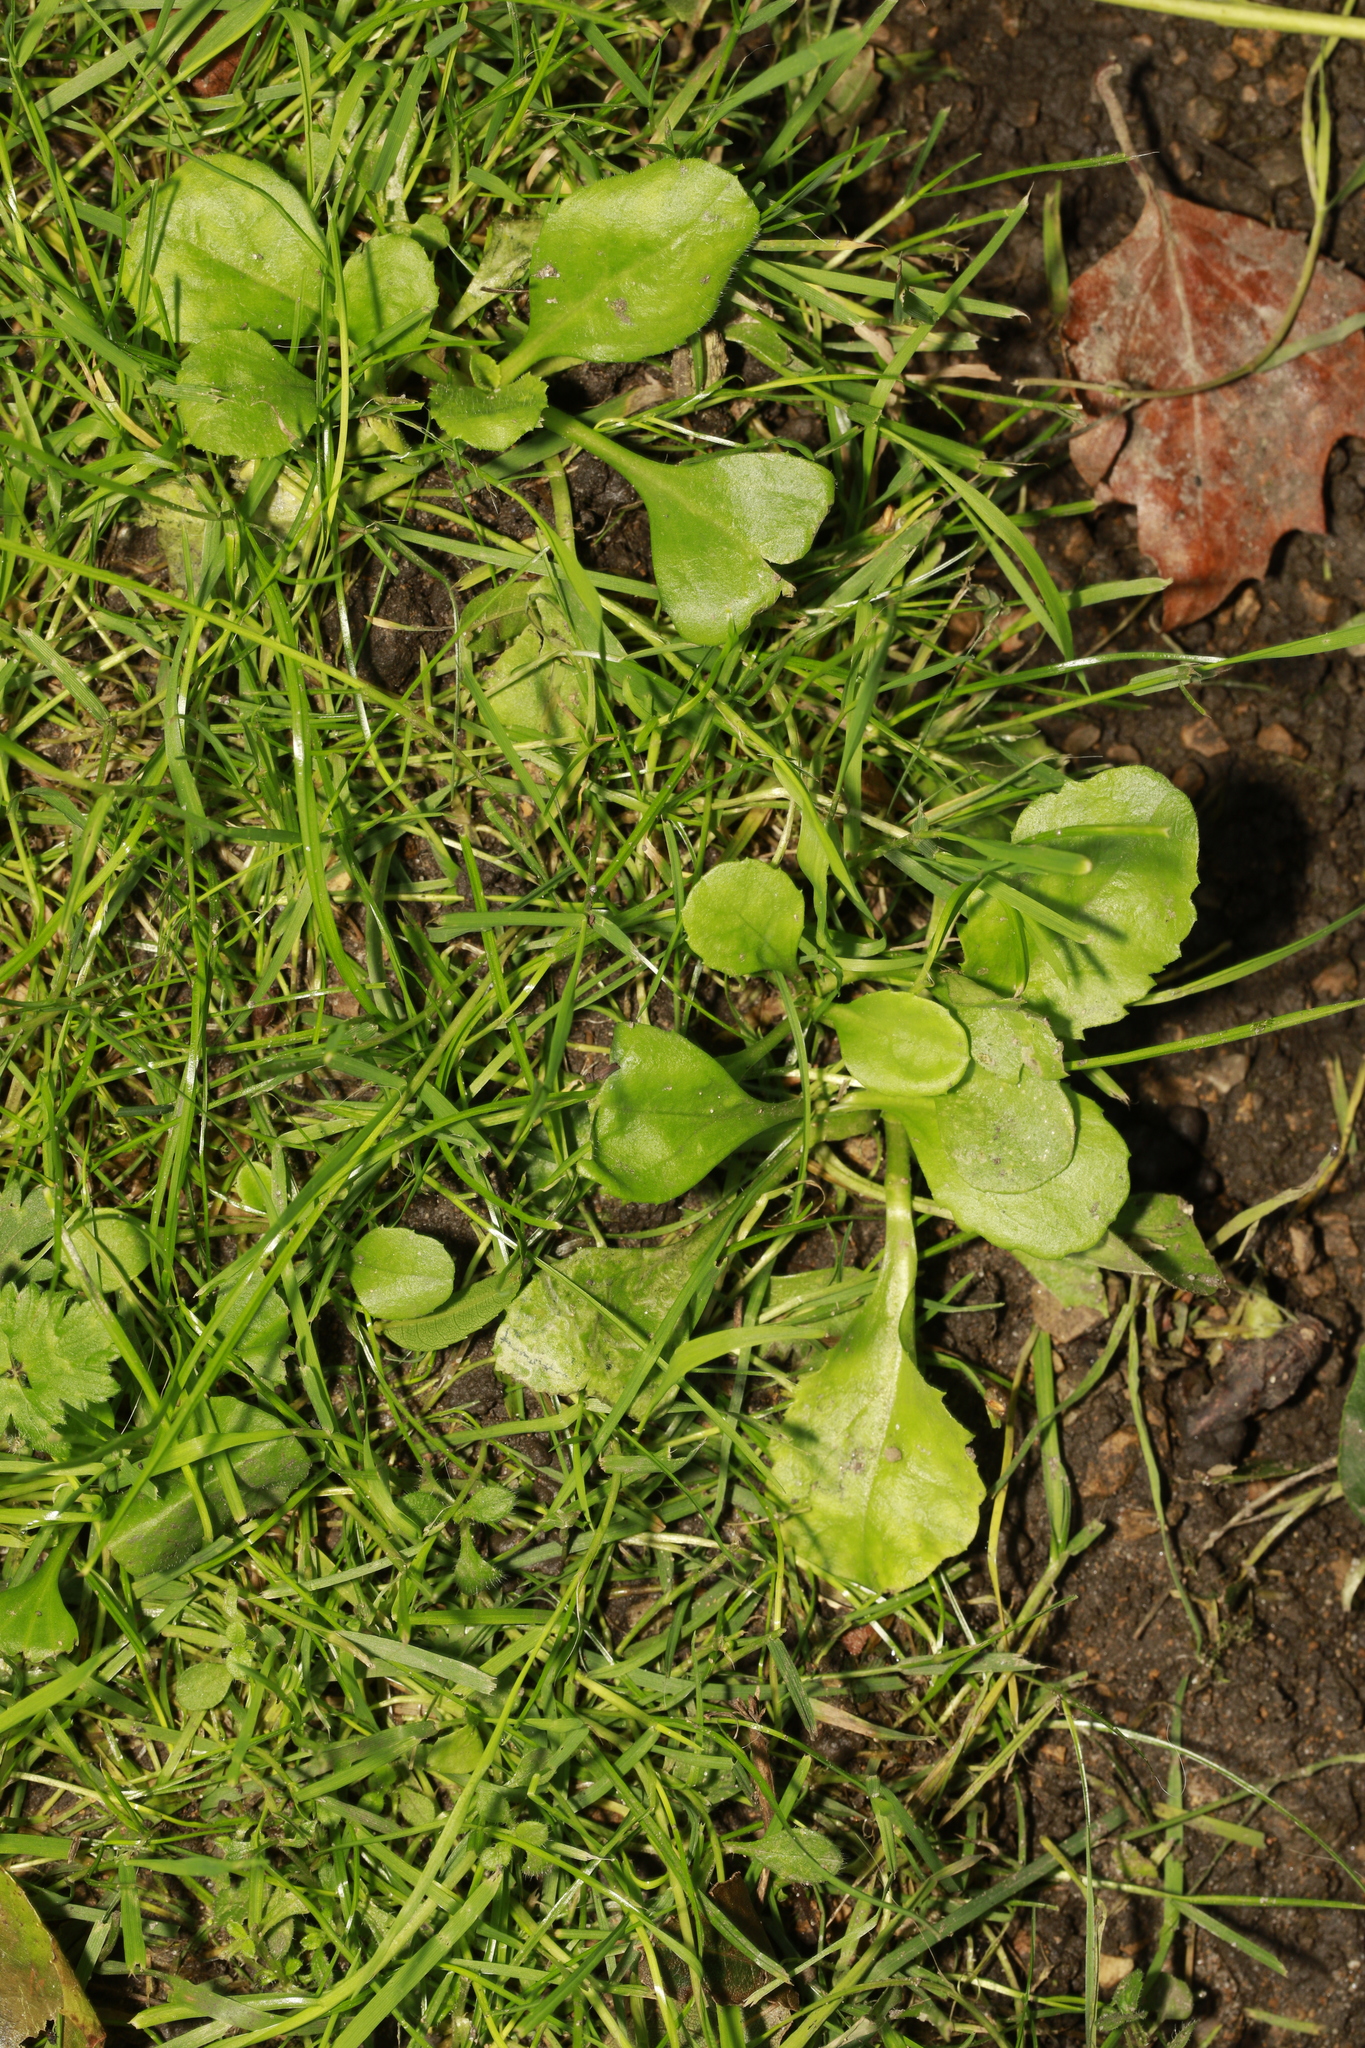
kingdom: Plantae
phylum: Tracheophyta
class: Magnoliopsida
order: Asterales
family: Asteraceae
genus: Bellis
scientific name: Bellis perennis
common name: Lawndaisy
